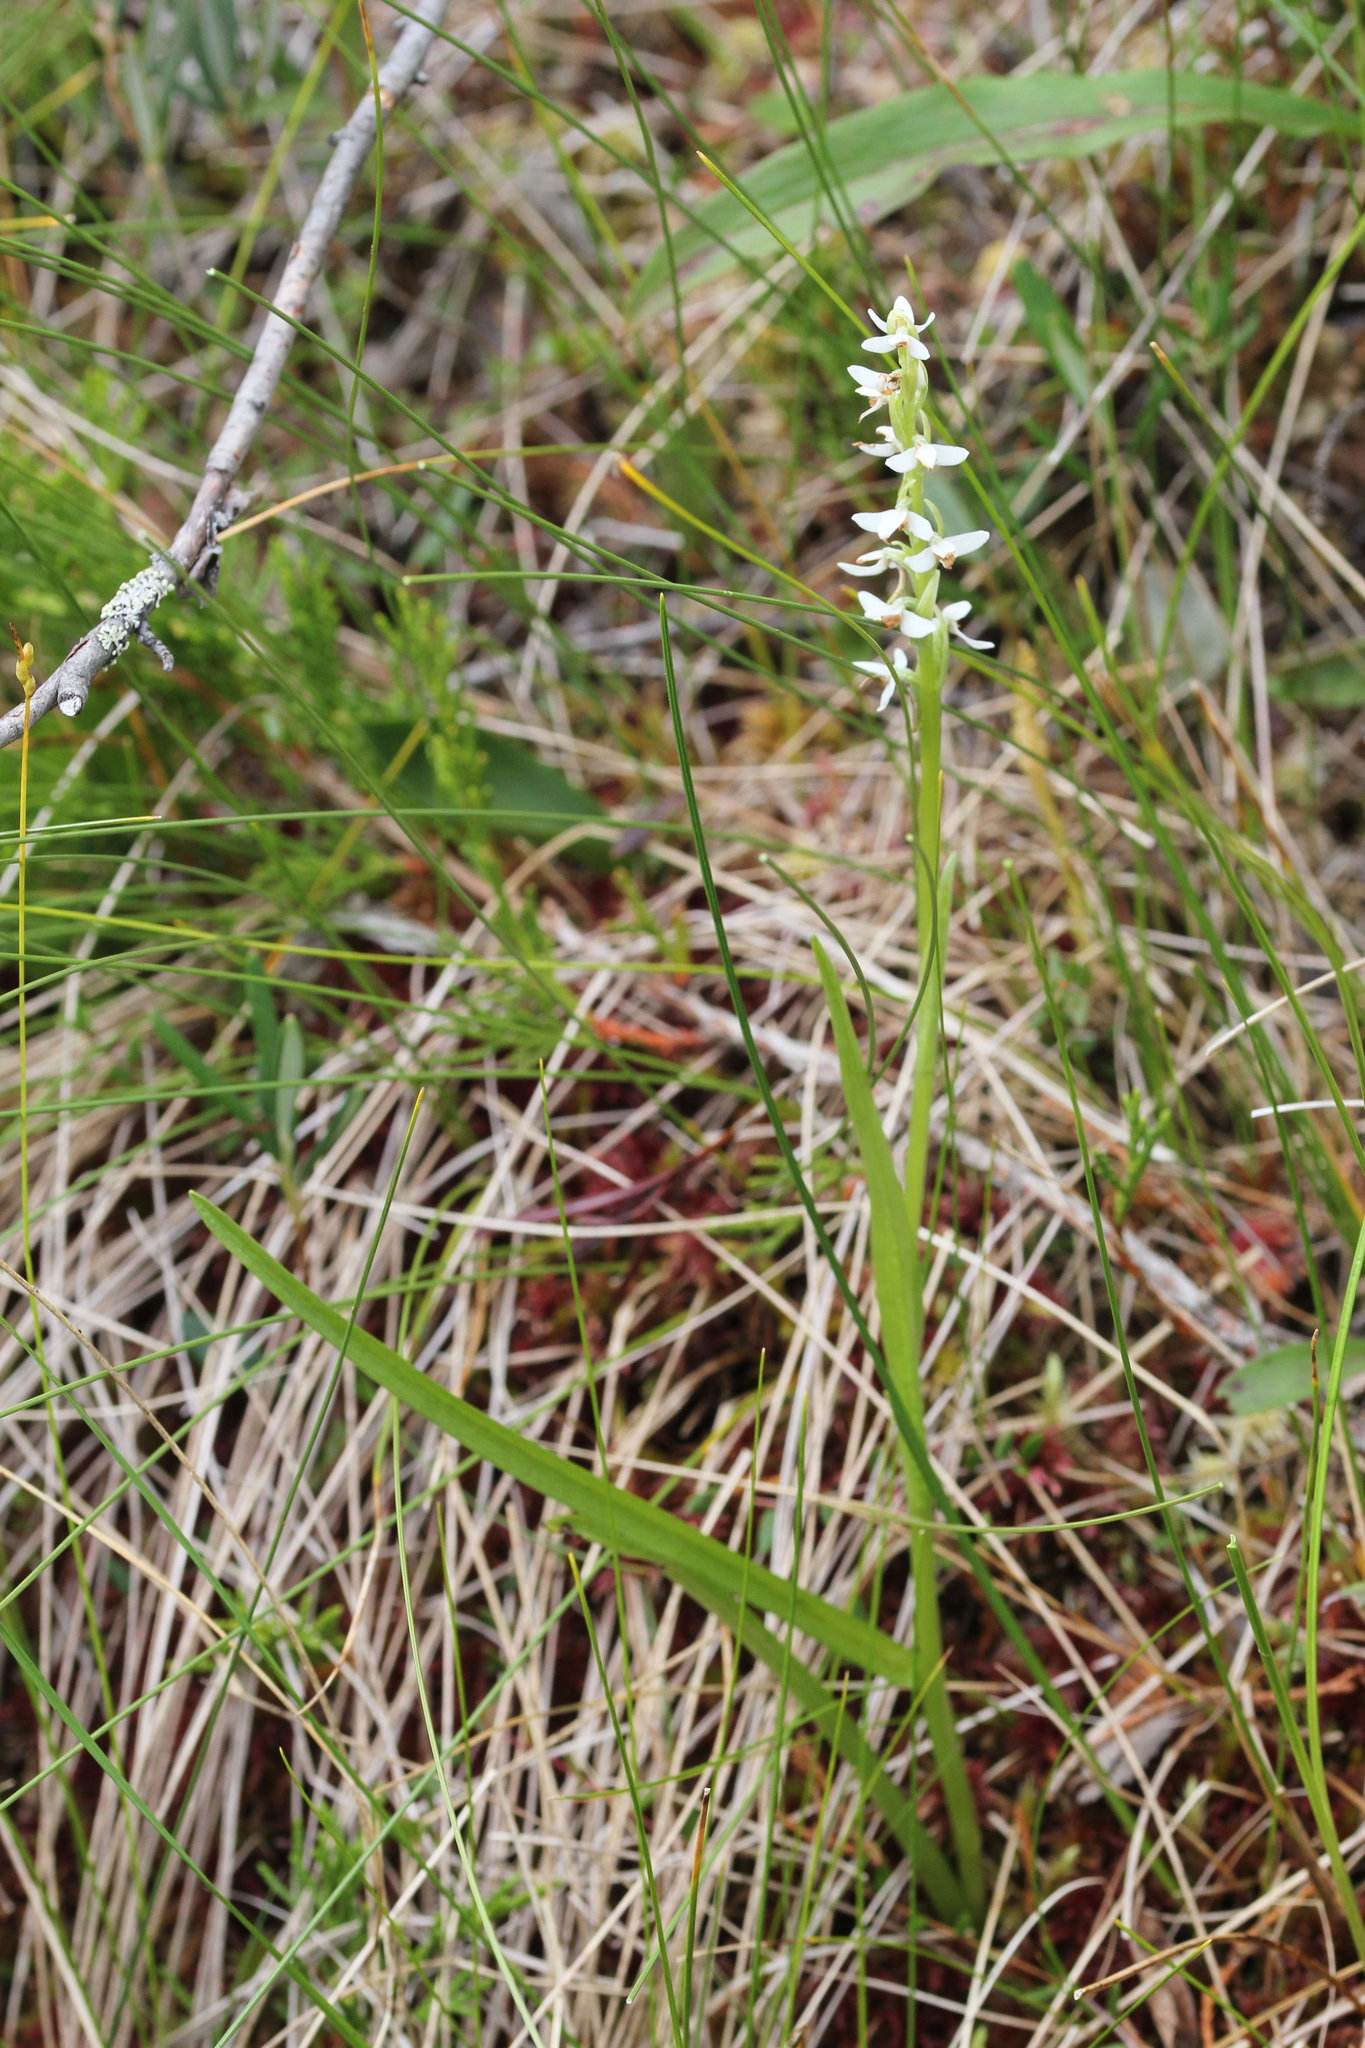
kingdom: Plantae
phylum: Tracheophyta
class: Liliopsida
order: Asparagales
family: Orchidaceae
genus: Platanthera
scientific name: Platanthera dilatata
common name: Bog candles
